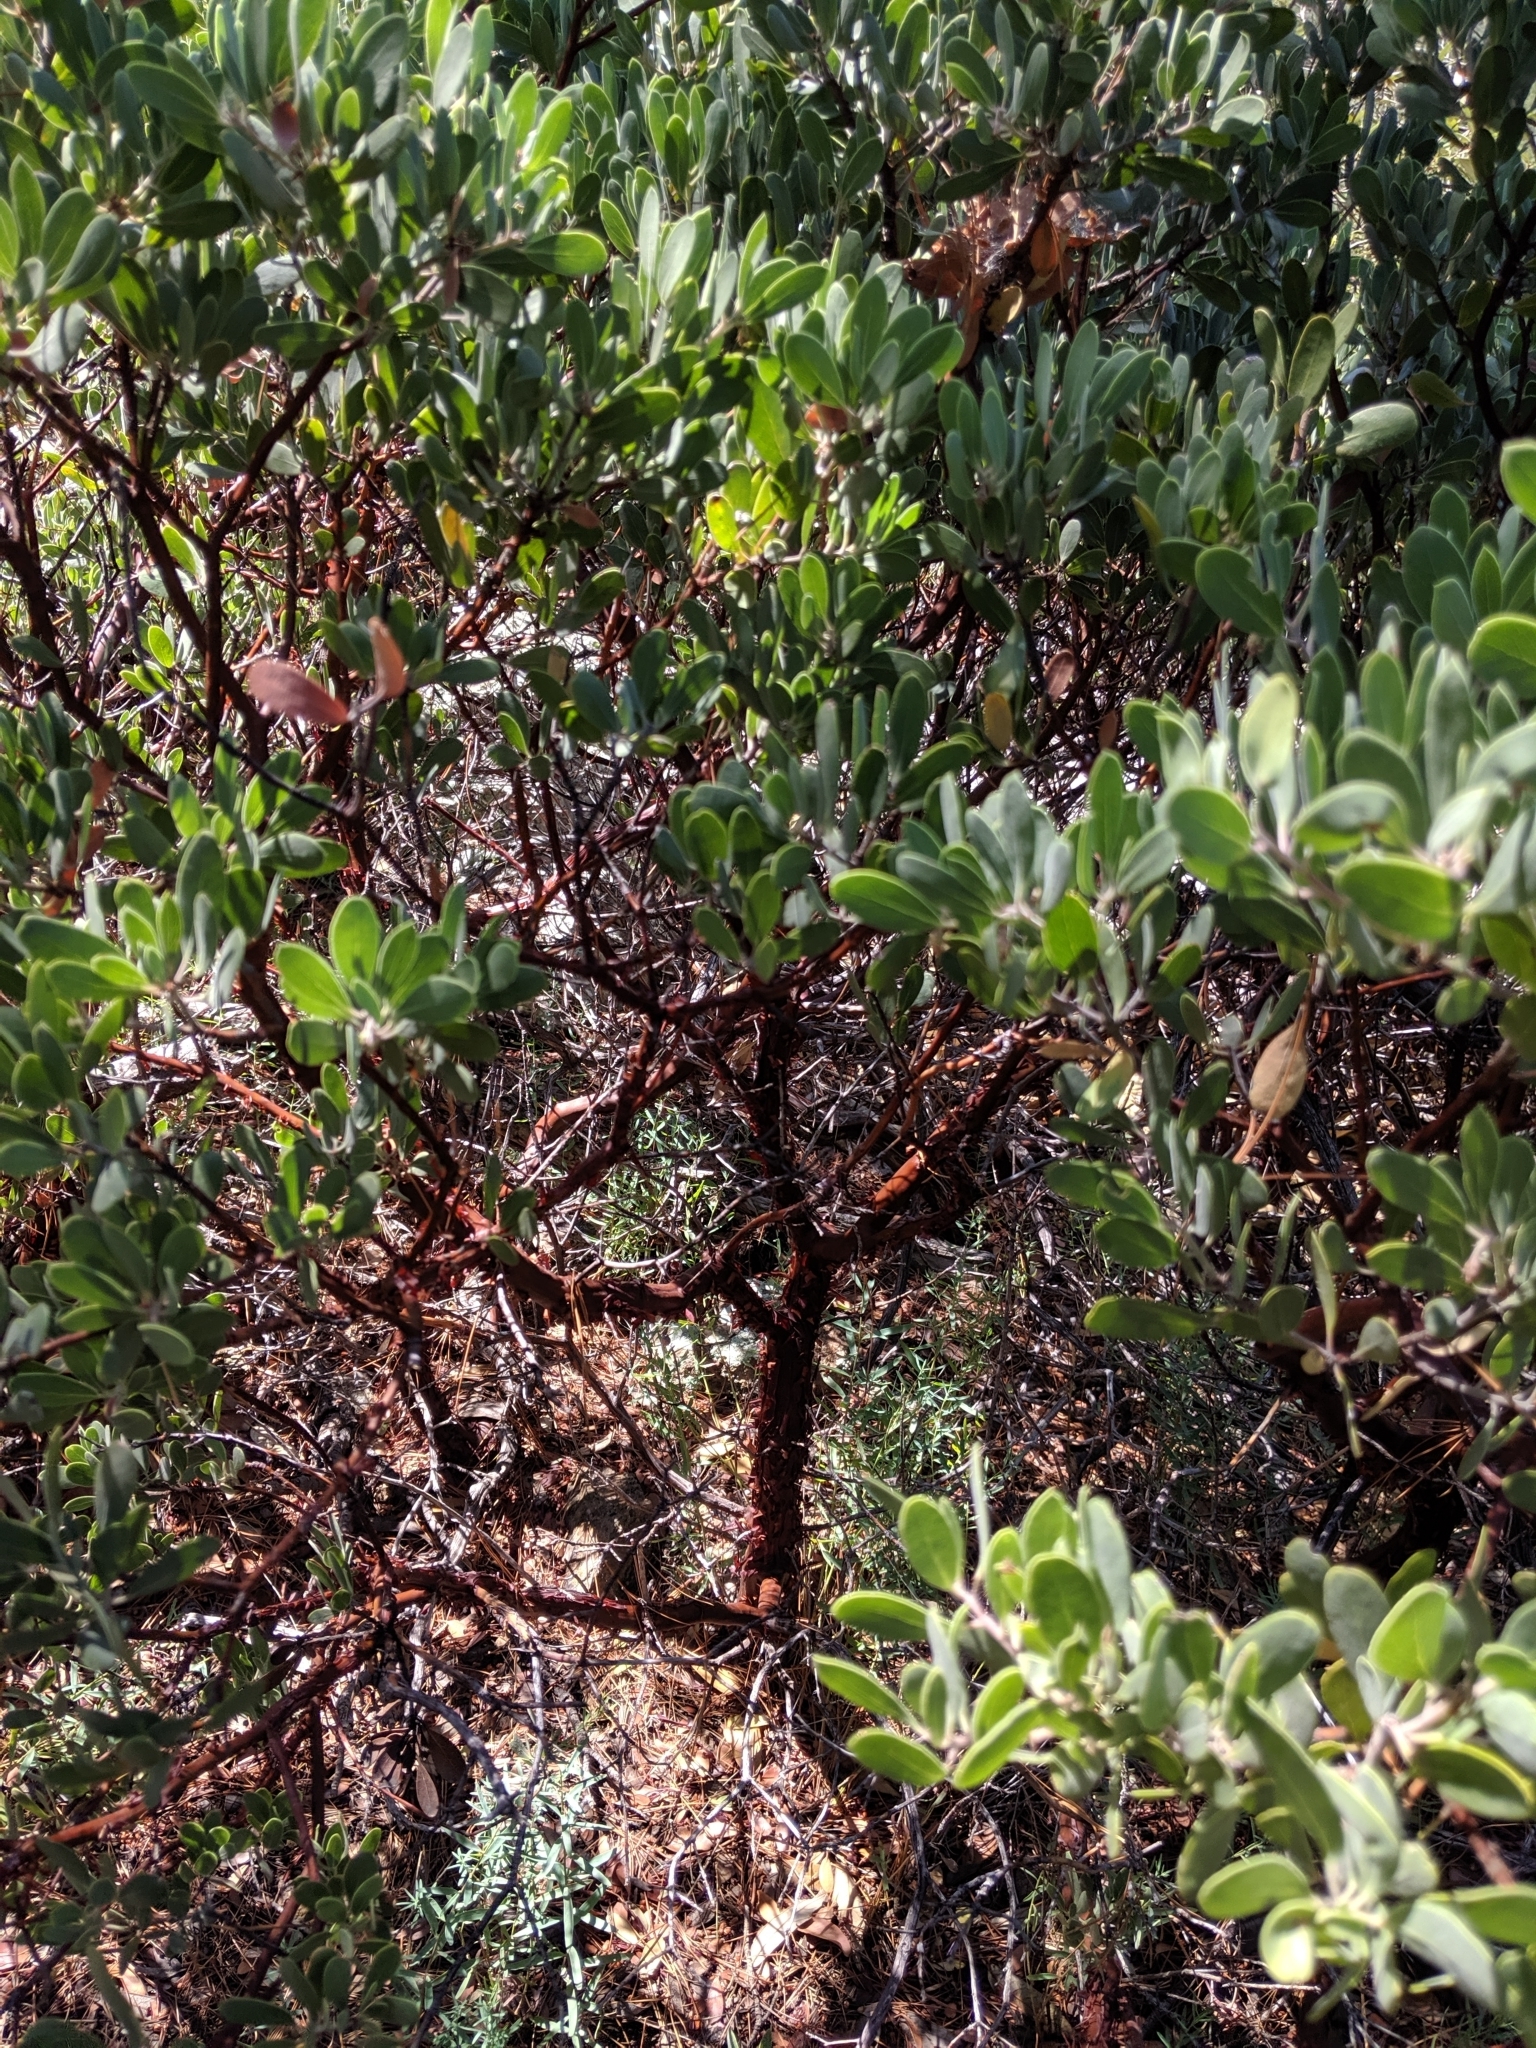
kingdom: Plantae
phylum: Tracheophyta
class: Magnoliopsida
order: Ericales
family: Ericaceae
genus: Arctostaphylos
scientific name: Arctostaphylos pungens
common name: Mexican manzanita
